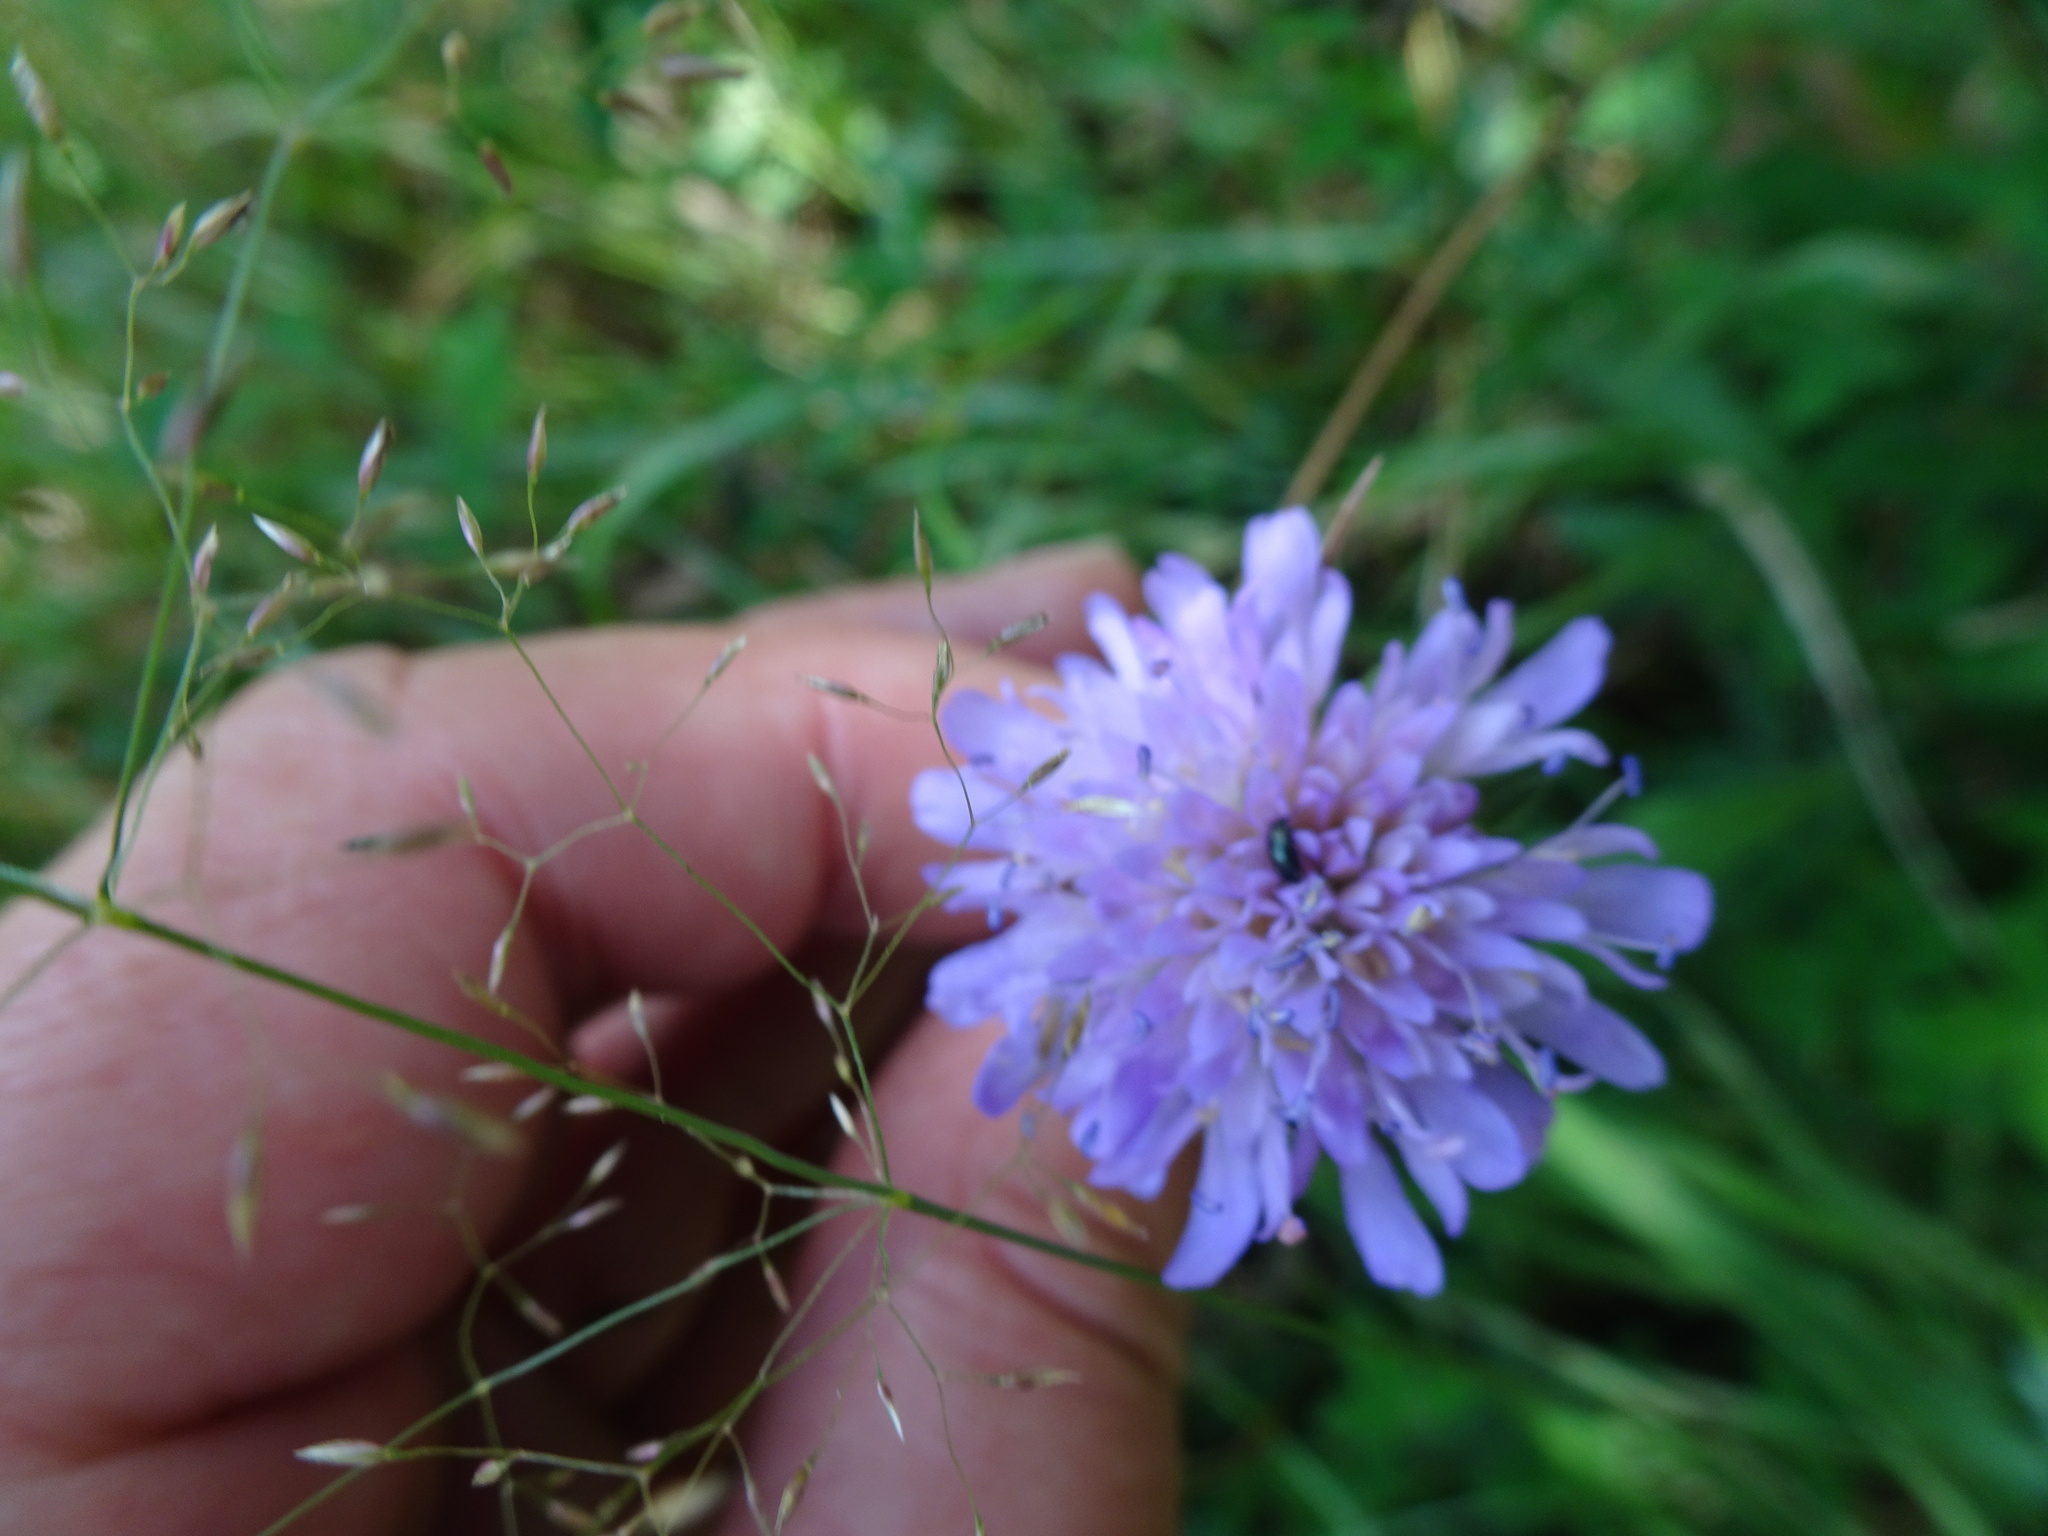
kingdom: Plantae
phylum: Tracheophyta
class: Magnoliopsida
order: Dipsacales
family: Caprifoliaceae
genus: Knautia
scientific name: Knautia arvensis
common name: Field scabiosa
